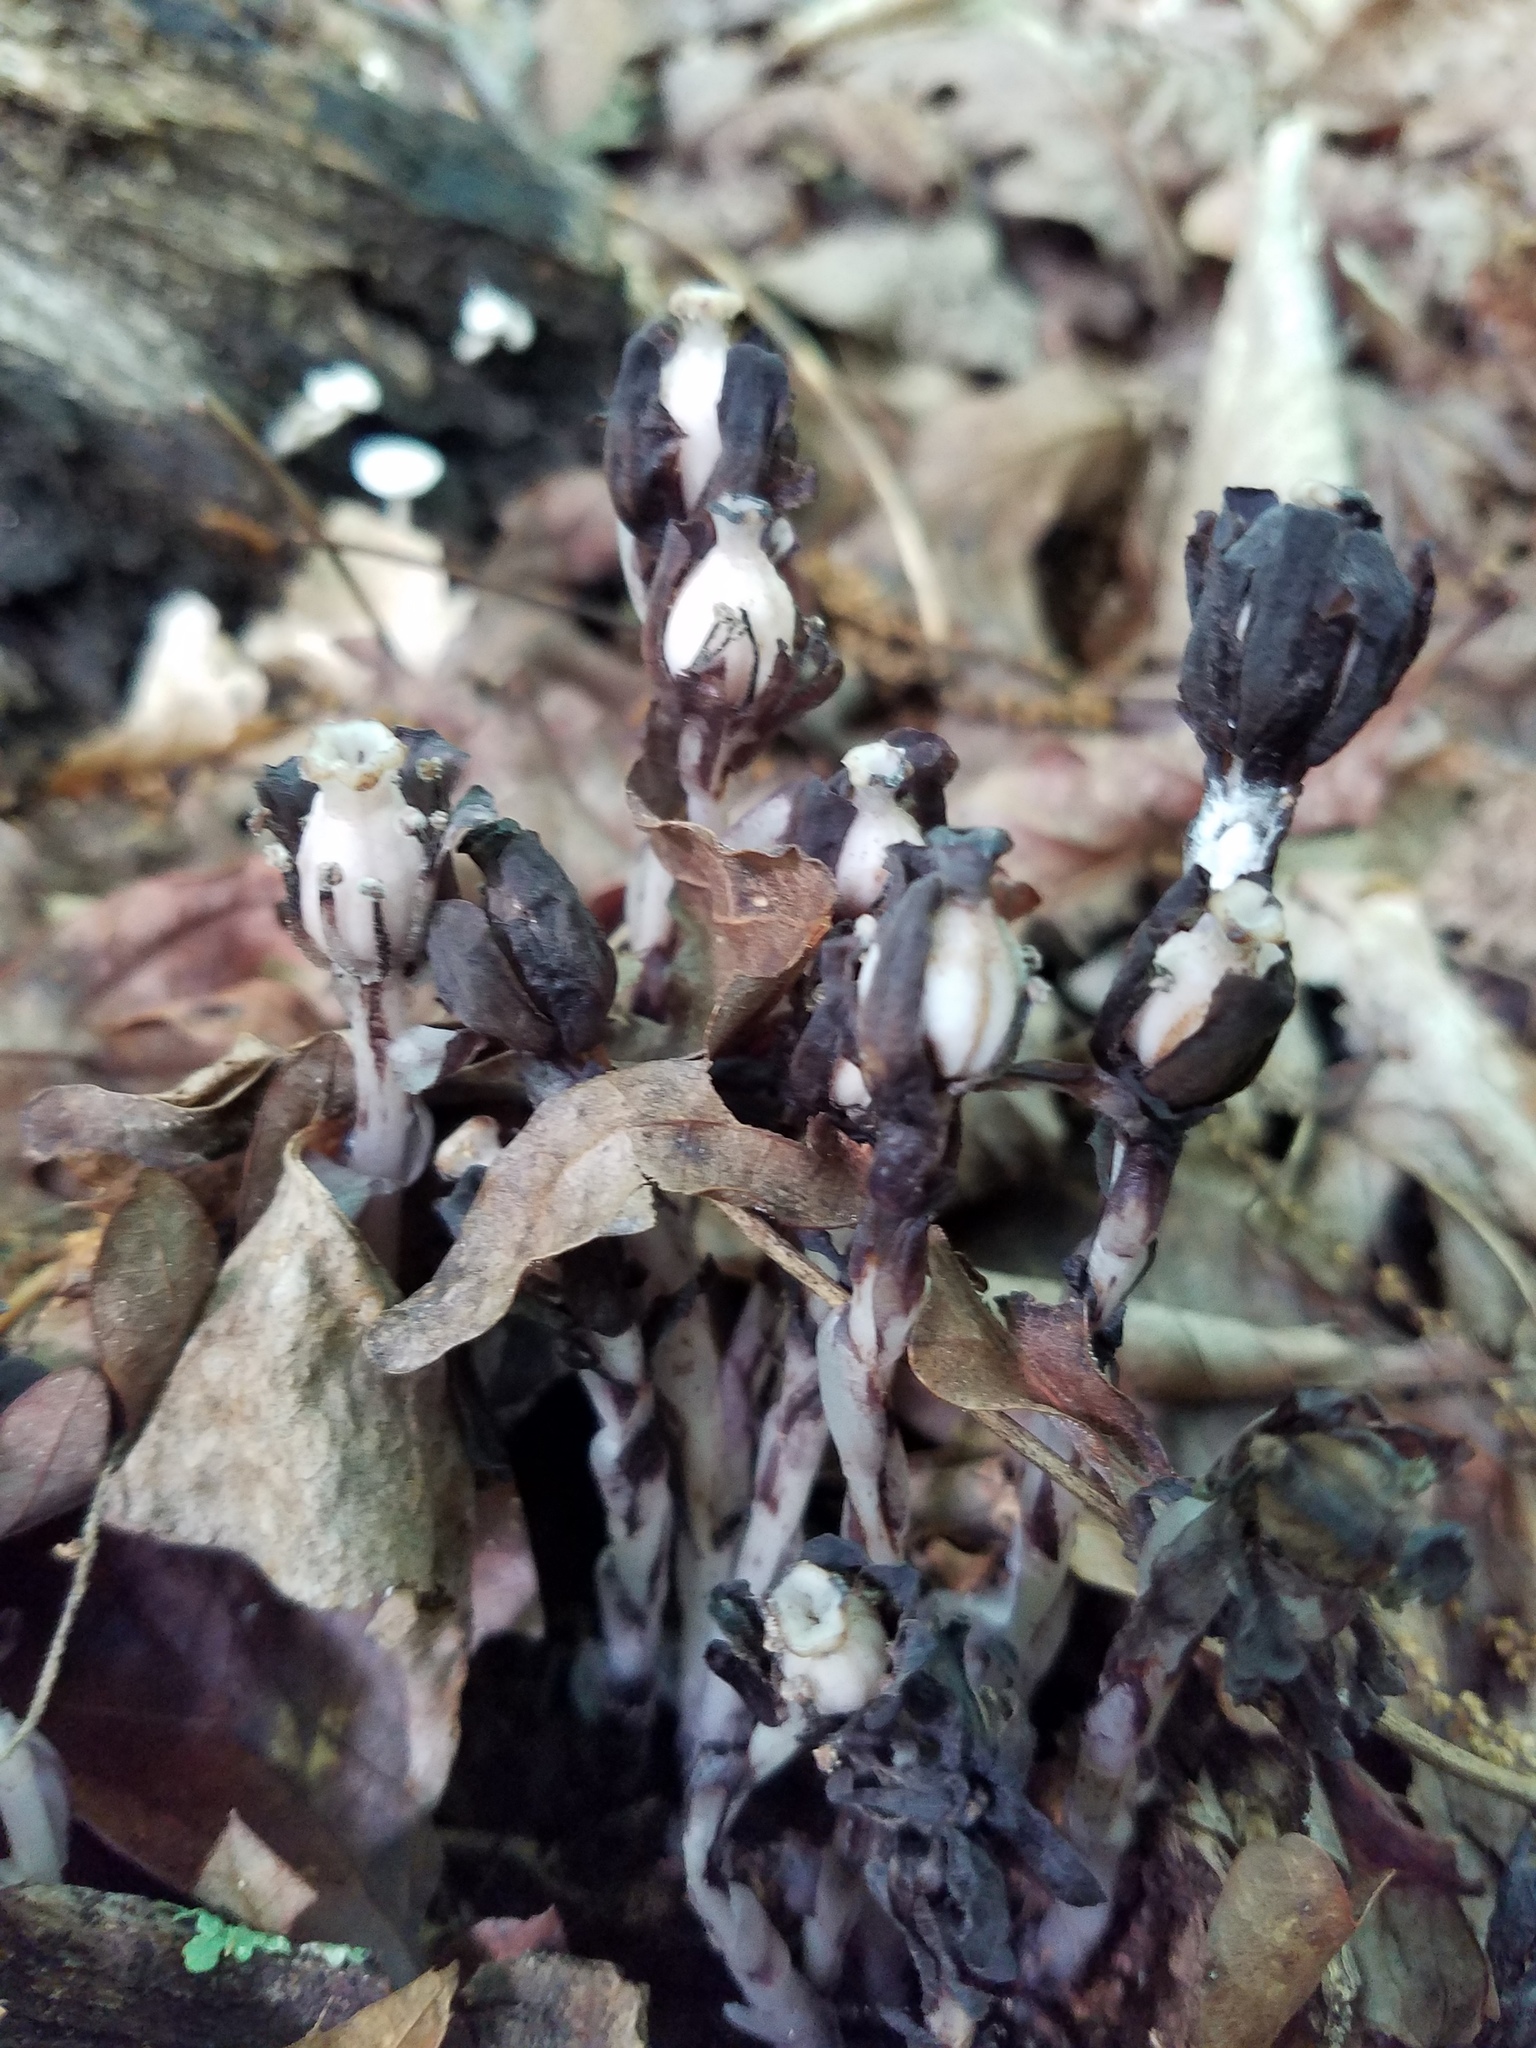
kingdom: Plantae
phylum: Tracheophyta
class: Magnoliopsida
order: Ericales
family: Ericaceae
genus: Monotropa
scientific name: Monotropa uniflora
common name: Convulsion root
